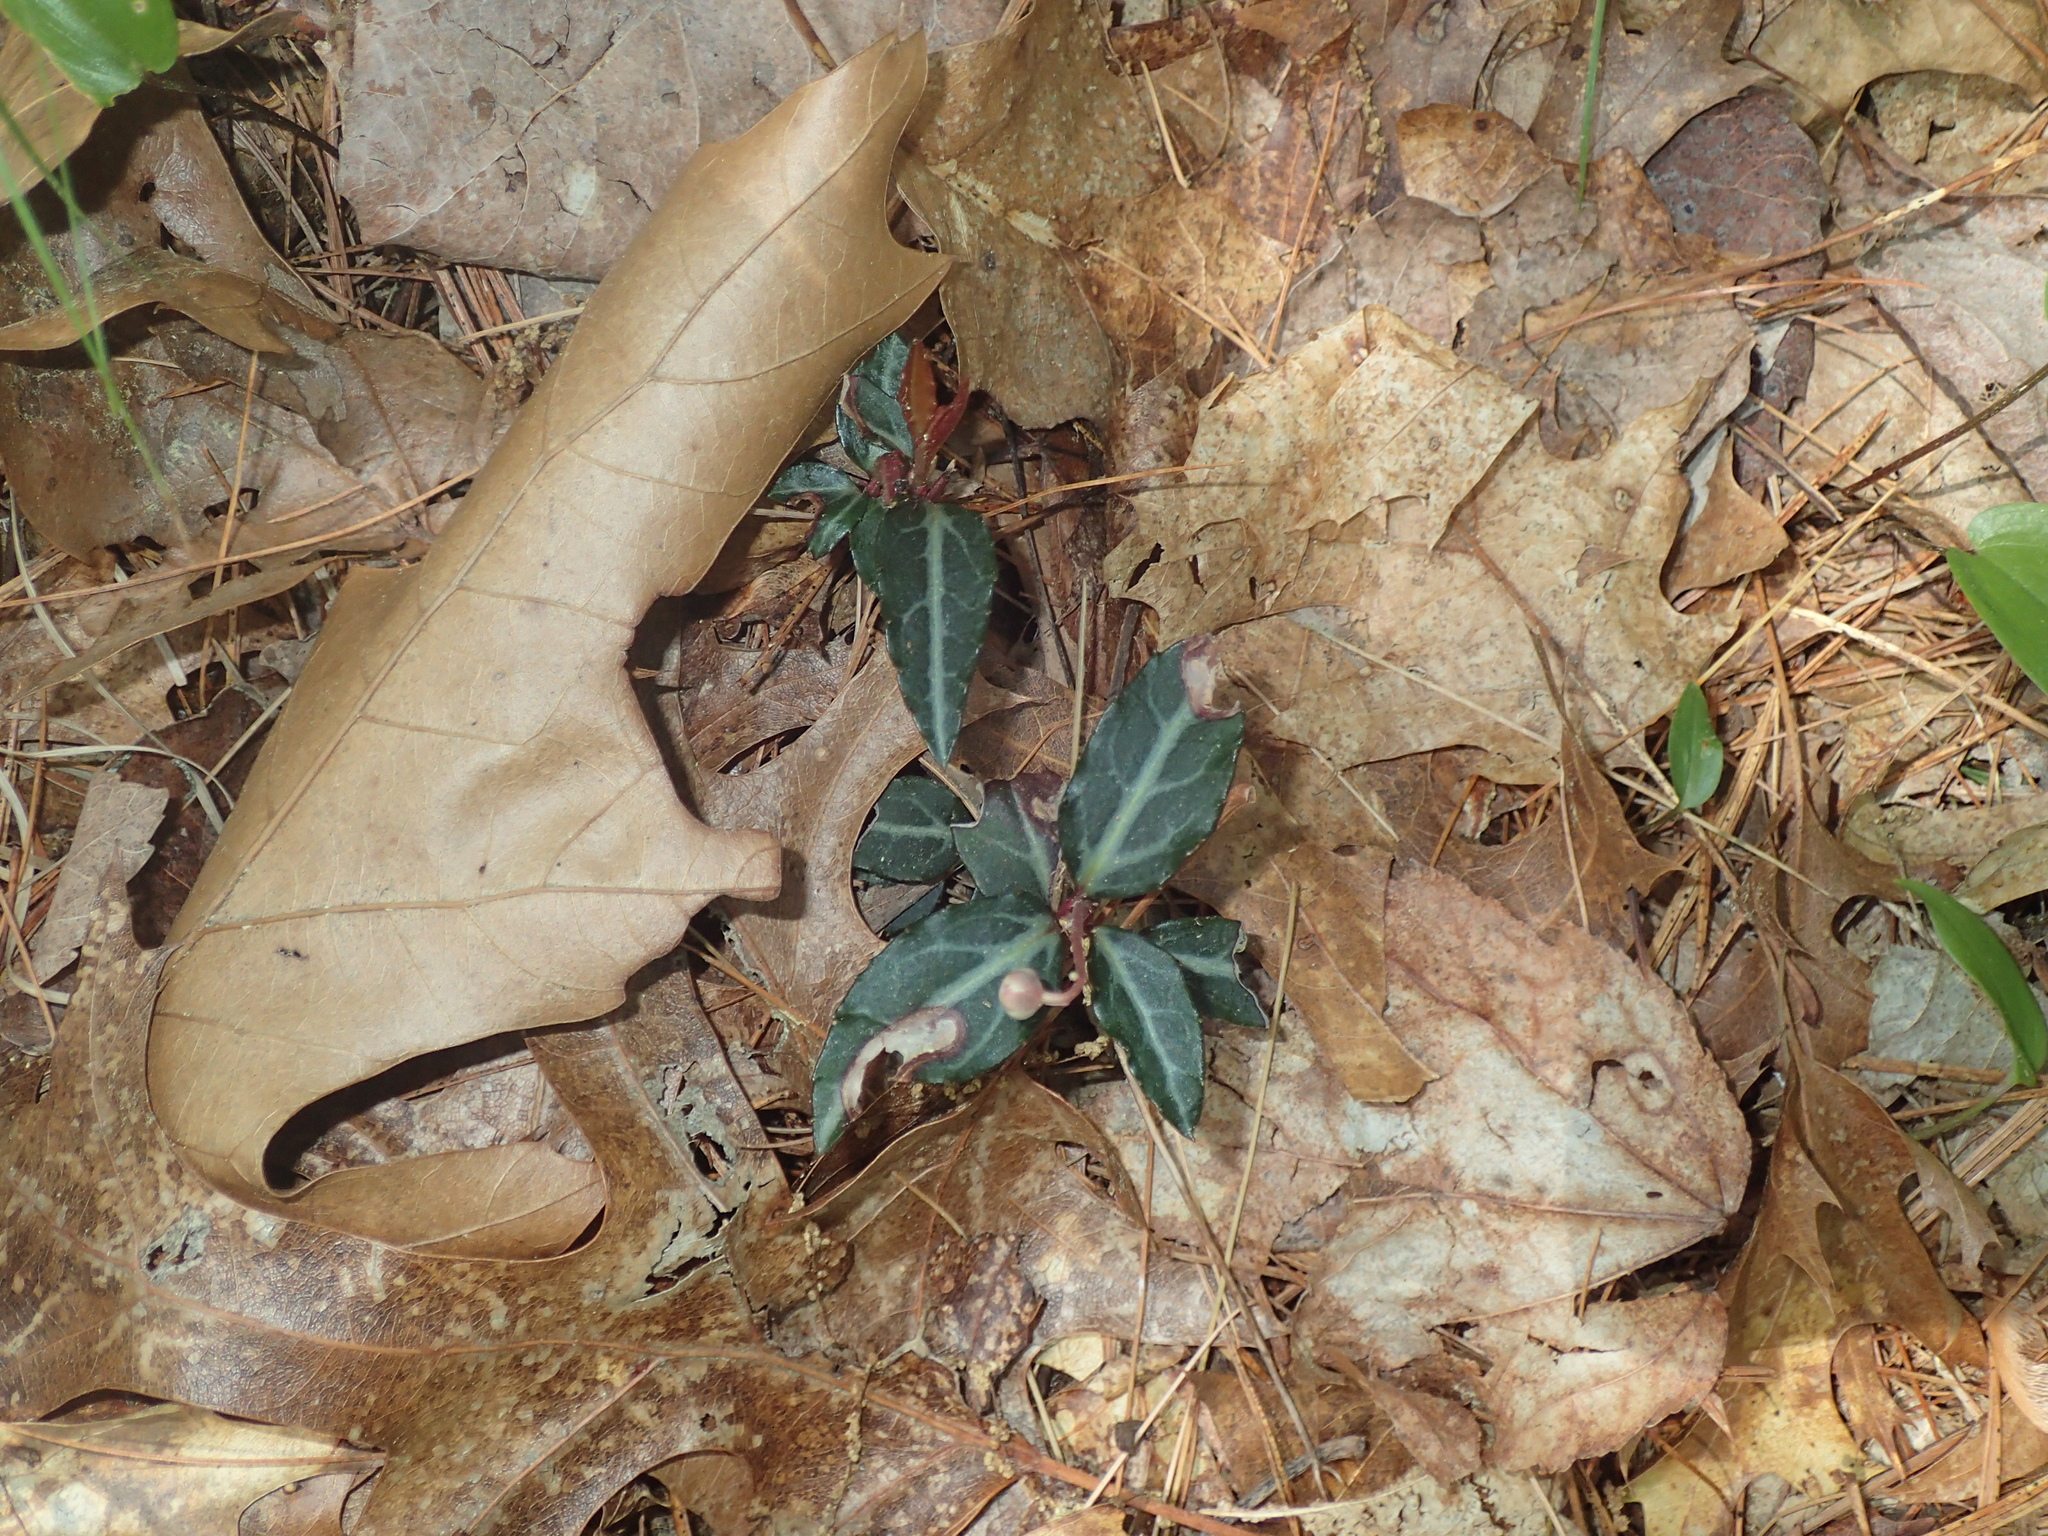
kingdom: Plantae
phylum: Tracheophyta
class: Magnoliopsida
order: Ericales
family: Ericaceae
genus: Chimaphila
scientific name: Chimaphila maculata
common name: Spotted pipsissewa
